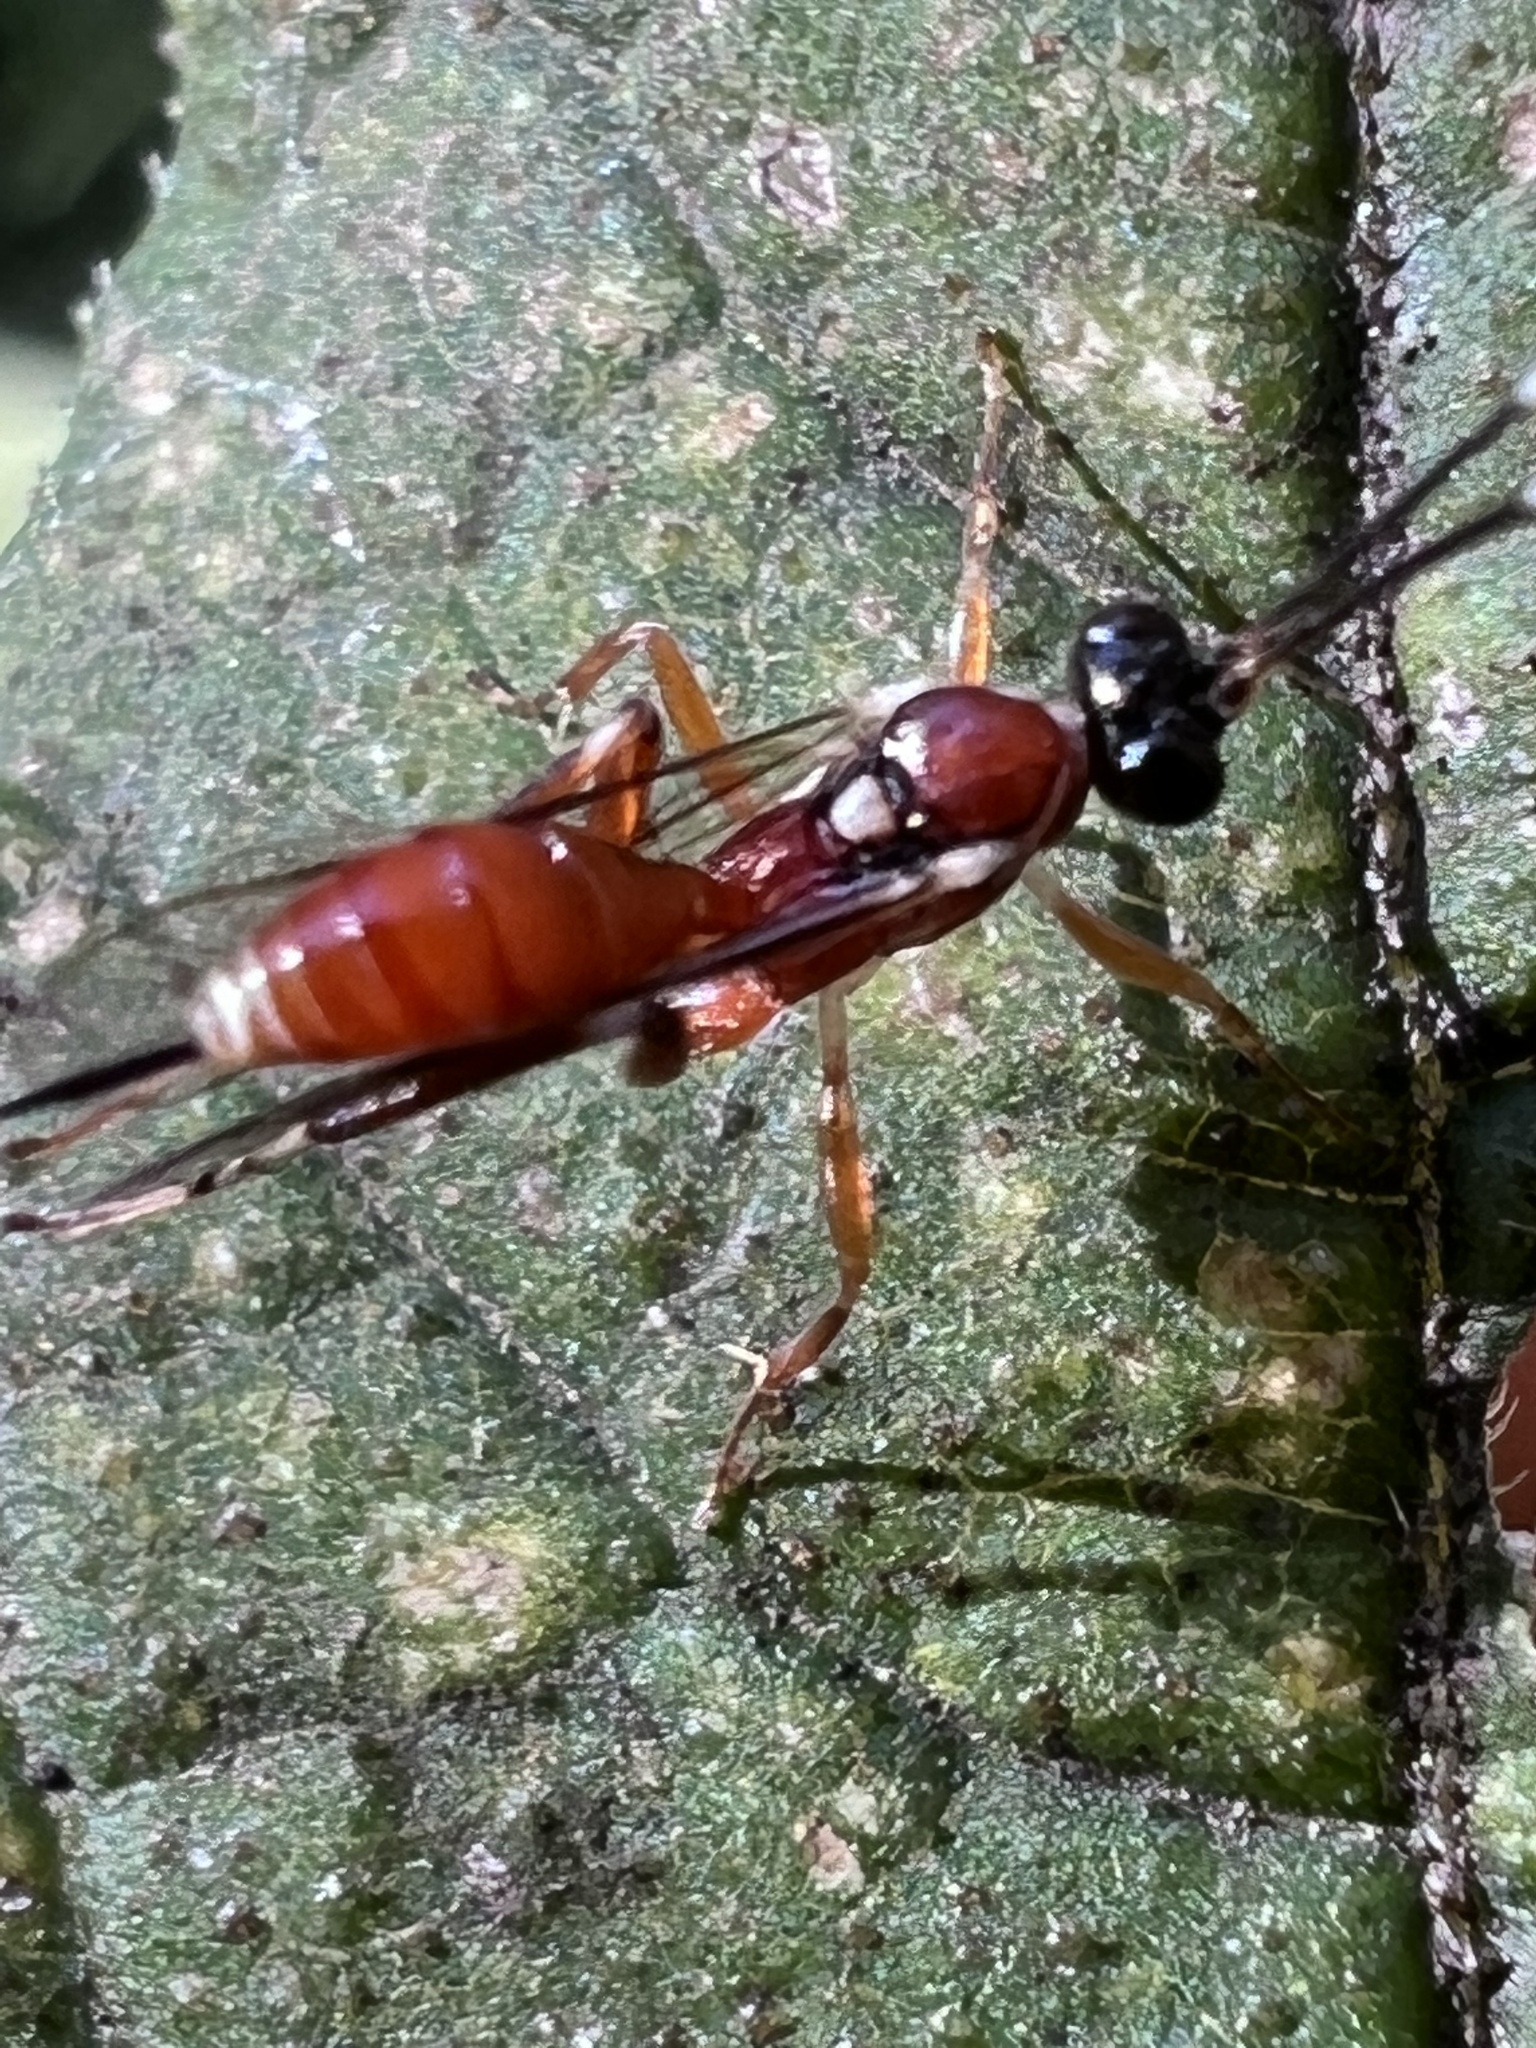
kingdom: Animalia
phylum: Arthropoda
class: Insecta
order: Hymenoptera
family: Ichneumonidae
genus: Ischnus
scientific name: Ischnus cinctipes
